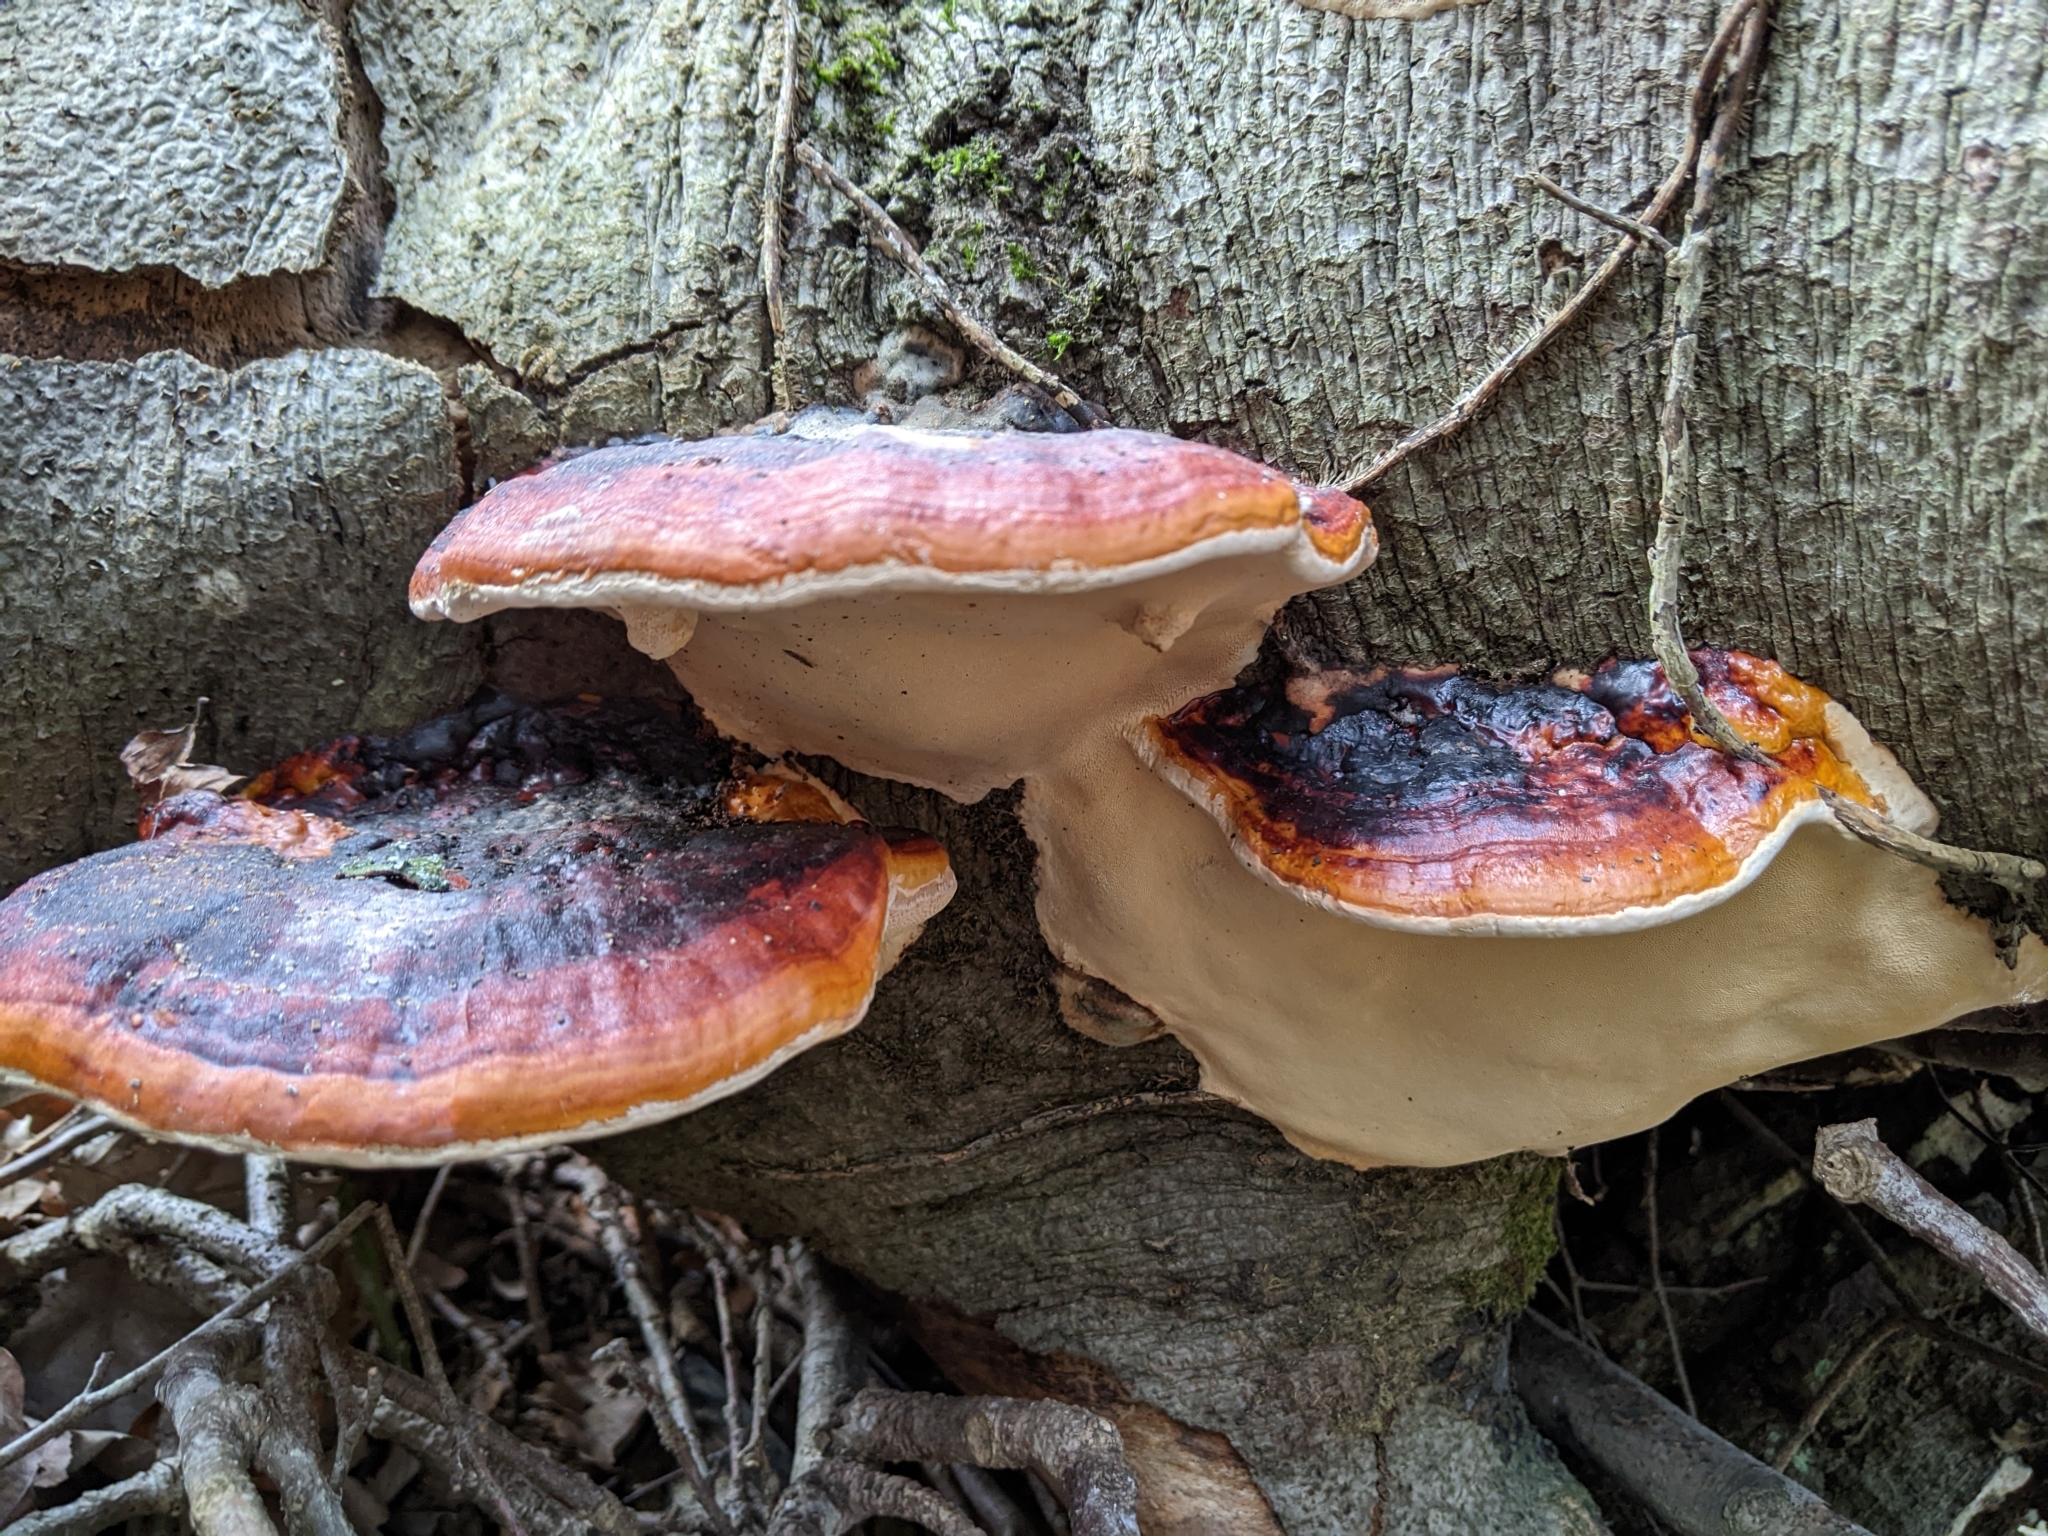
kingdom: Fungi
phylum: Basidiomycota
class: Agaricomycetes
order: Polyporales
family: Fomitopsidaceae
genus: Fomitopsis
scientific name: Fomitopsis pinicola
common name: Red-belted bracket
